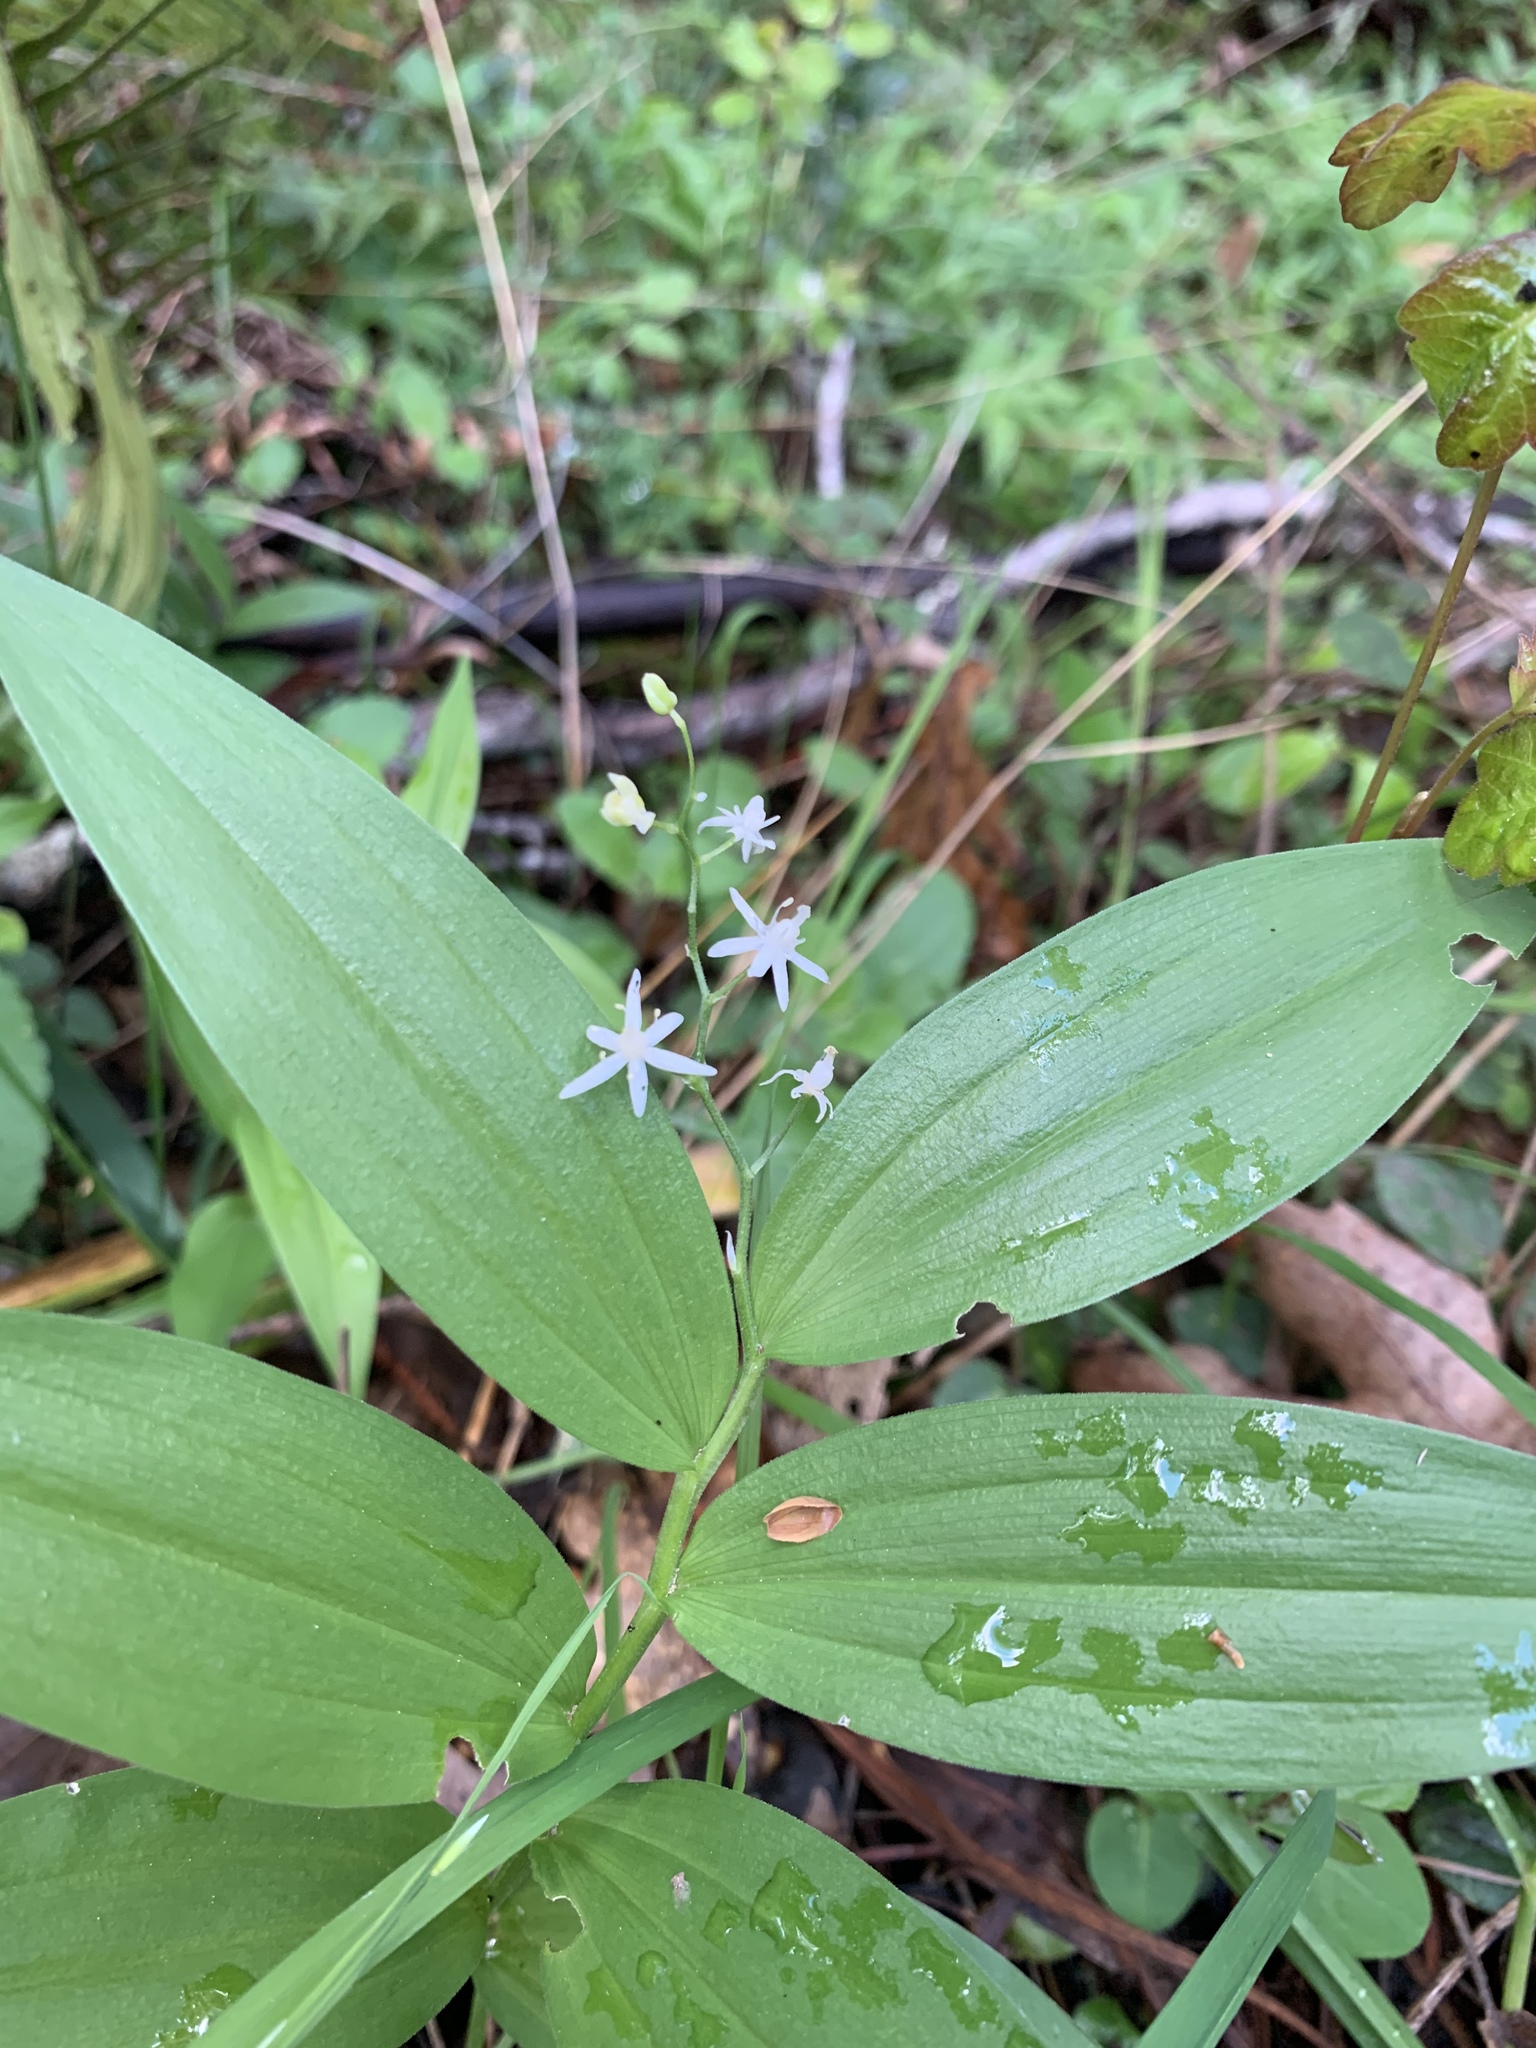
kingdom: Plantae
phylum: Tracheophyta
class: Liliopsida
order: Asparagales
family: Asparagaceae
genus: Maianthemum
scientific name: Maianthemum stellatum
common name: Little false solomon's seal
